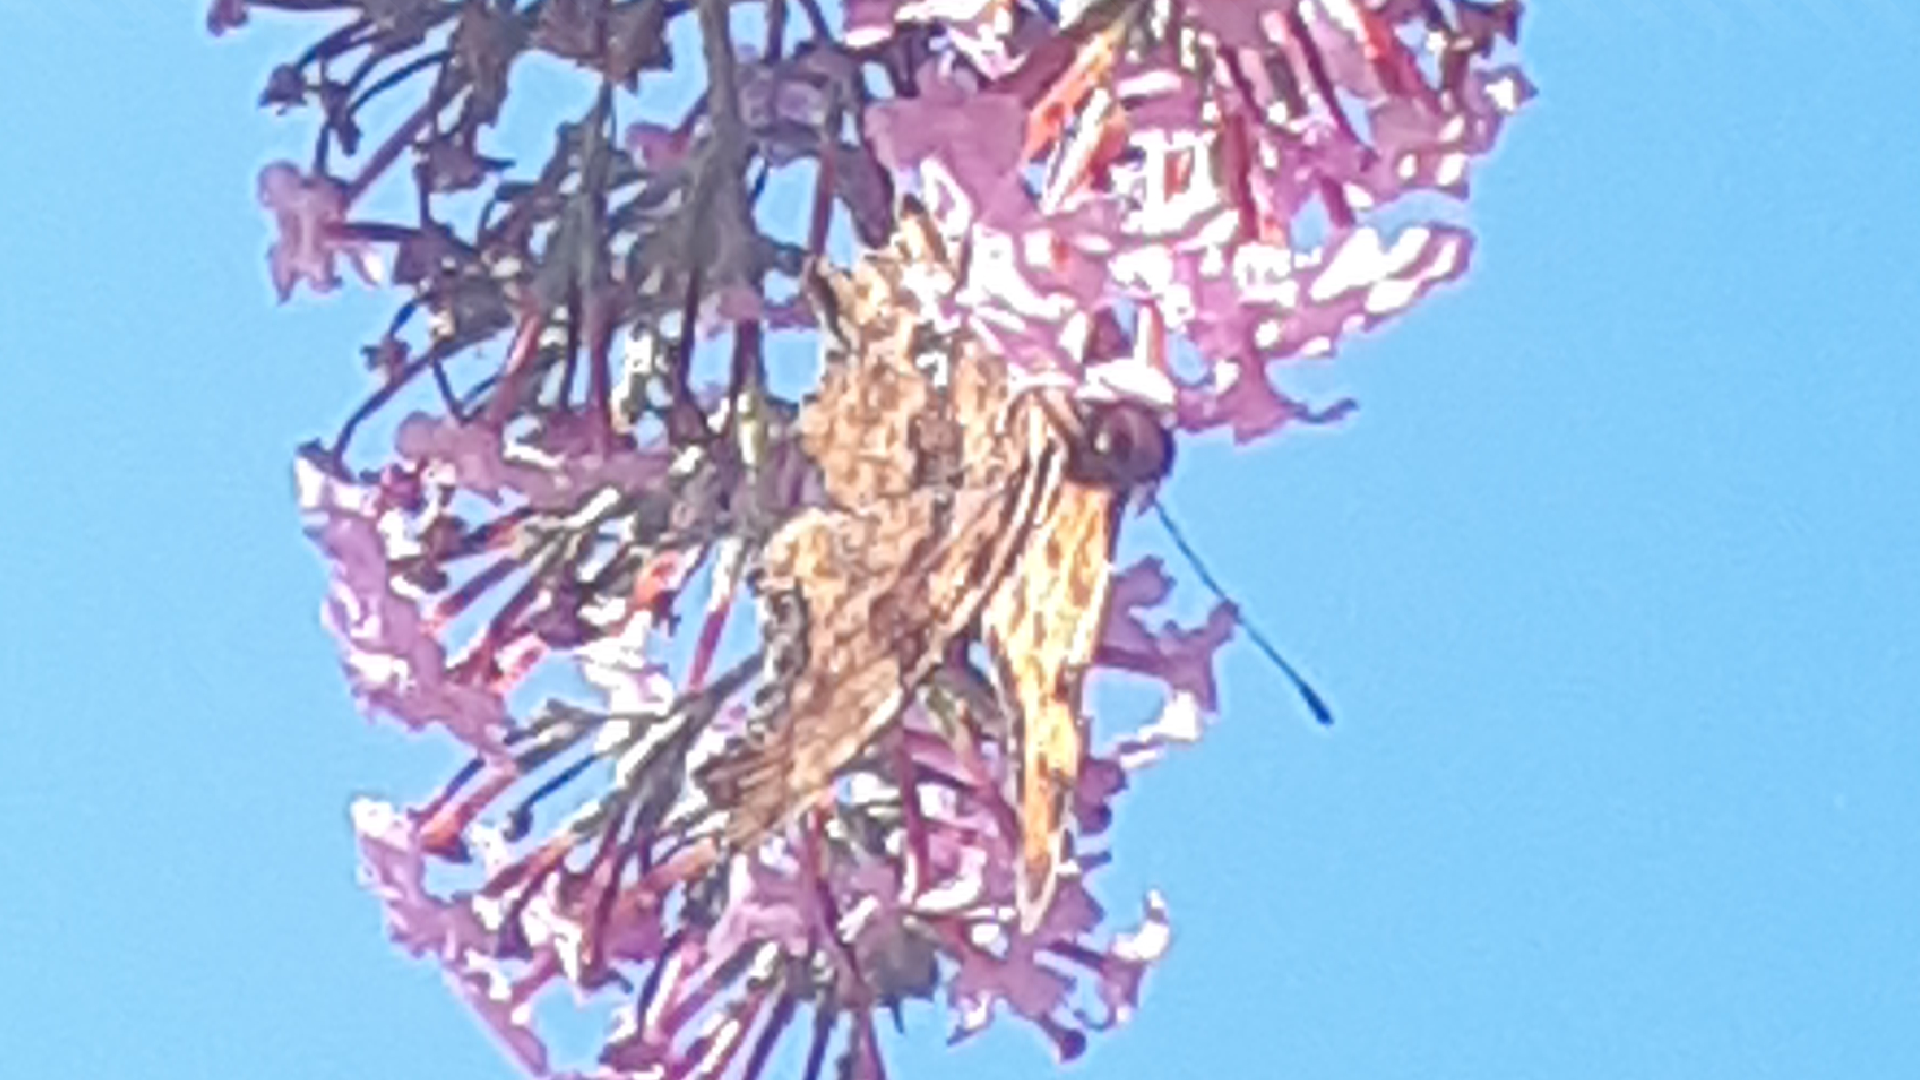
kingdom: Animalia
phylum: Arthropoda
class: Insecta
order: Lepidoptera
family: Nymphalidae
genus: Polygonia
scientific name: Polygonia c-album
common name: Comma
